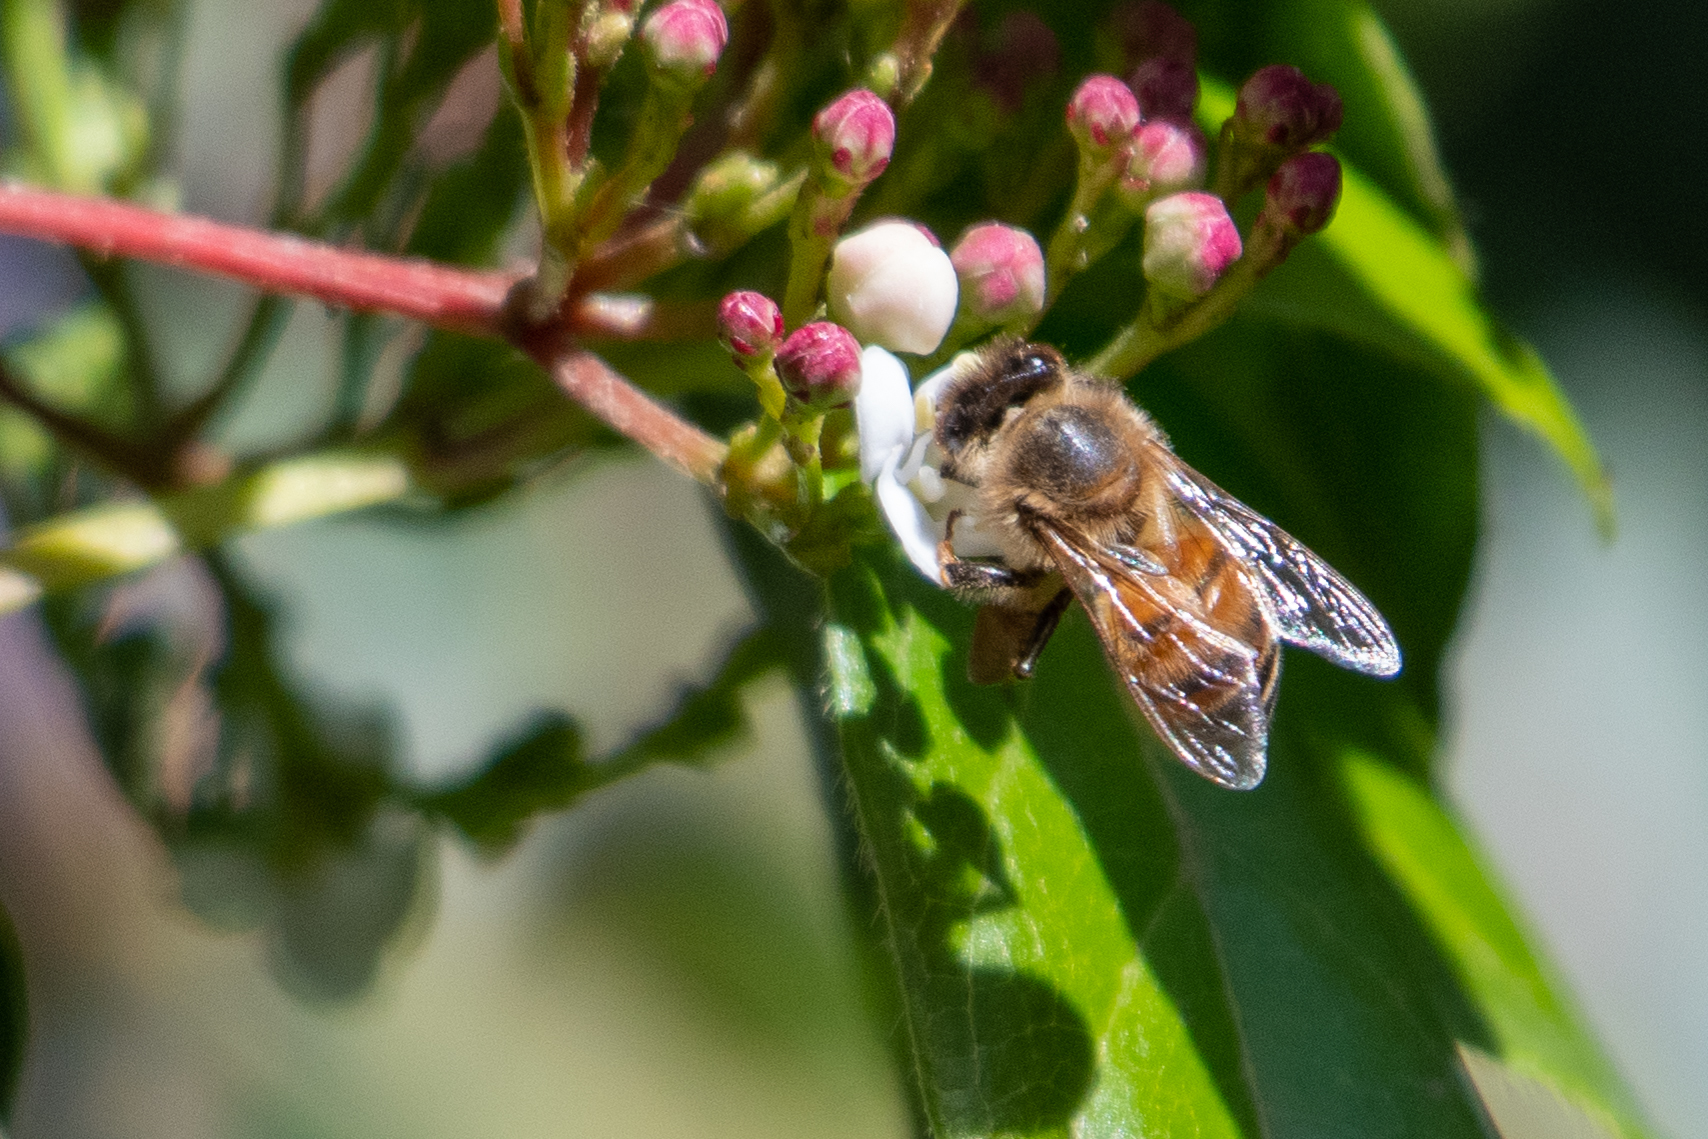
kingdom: Animalia
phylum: Arthropoda
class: Insecta
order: Hymenoptera
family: Apidae
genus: Apis
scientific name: Apis mellifera
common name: Honey bee
